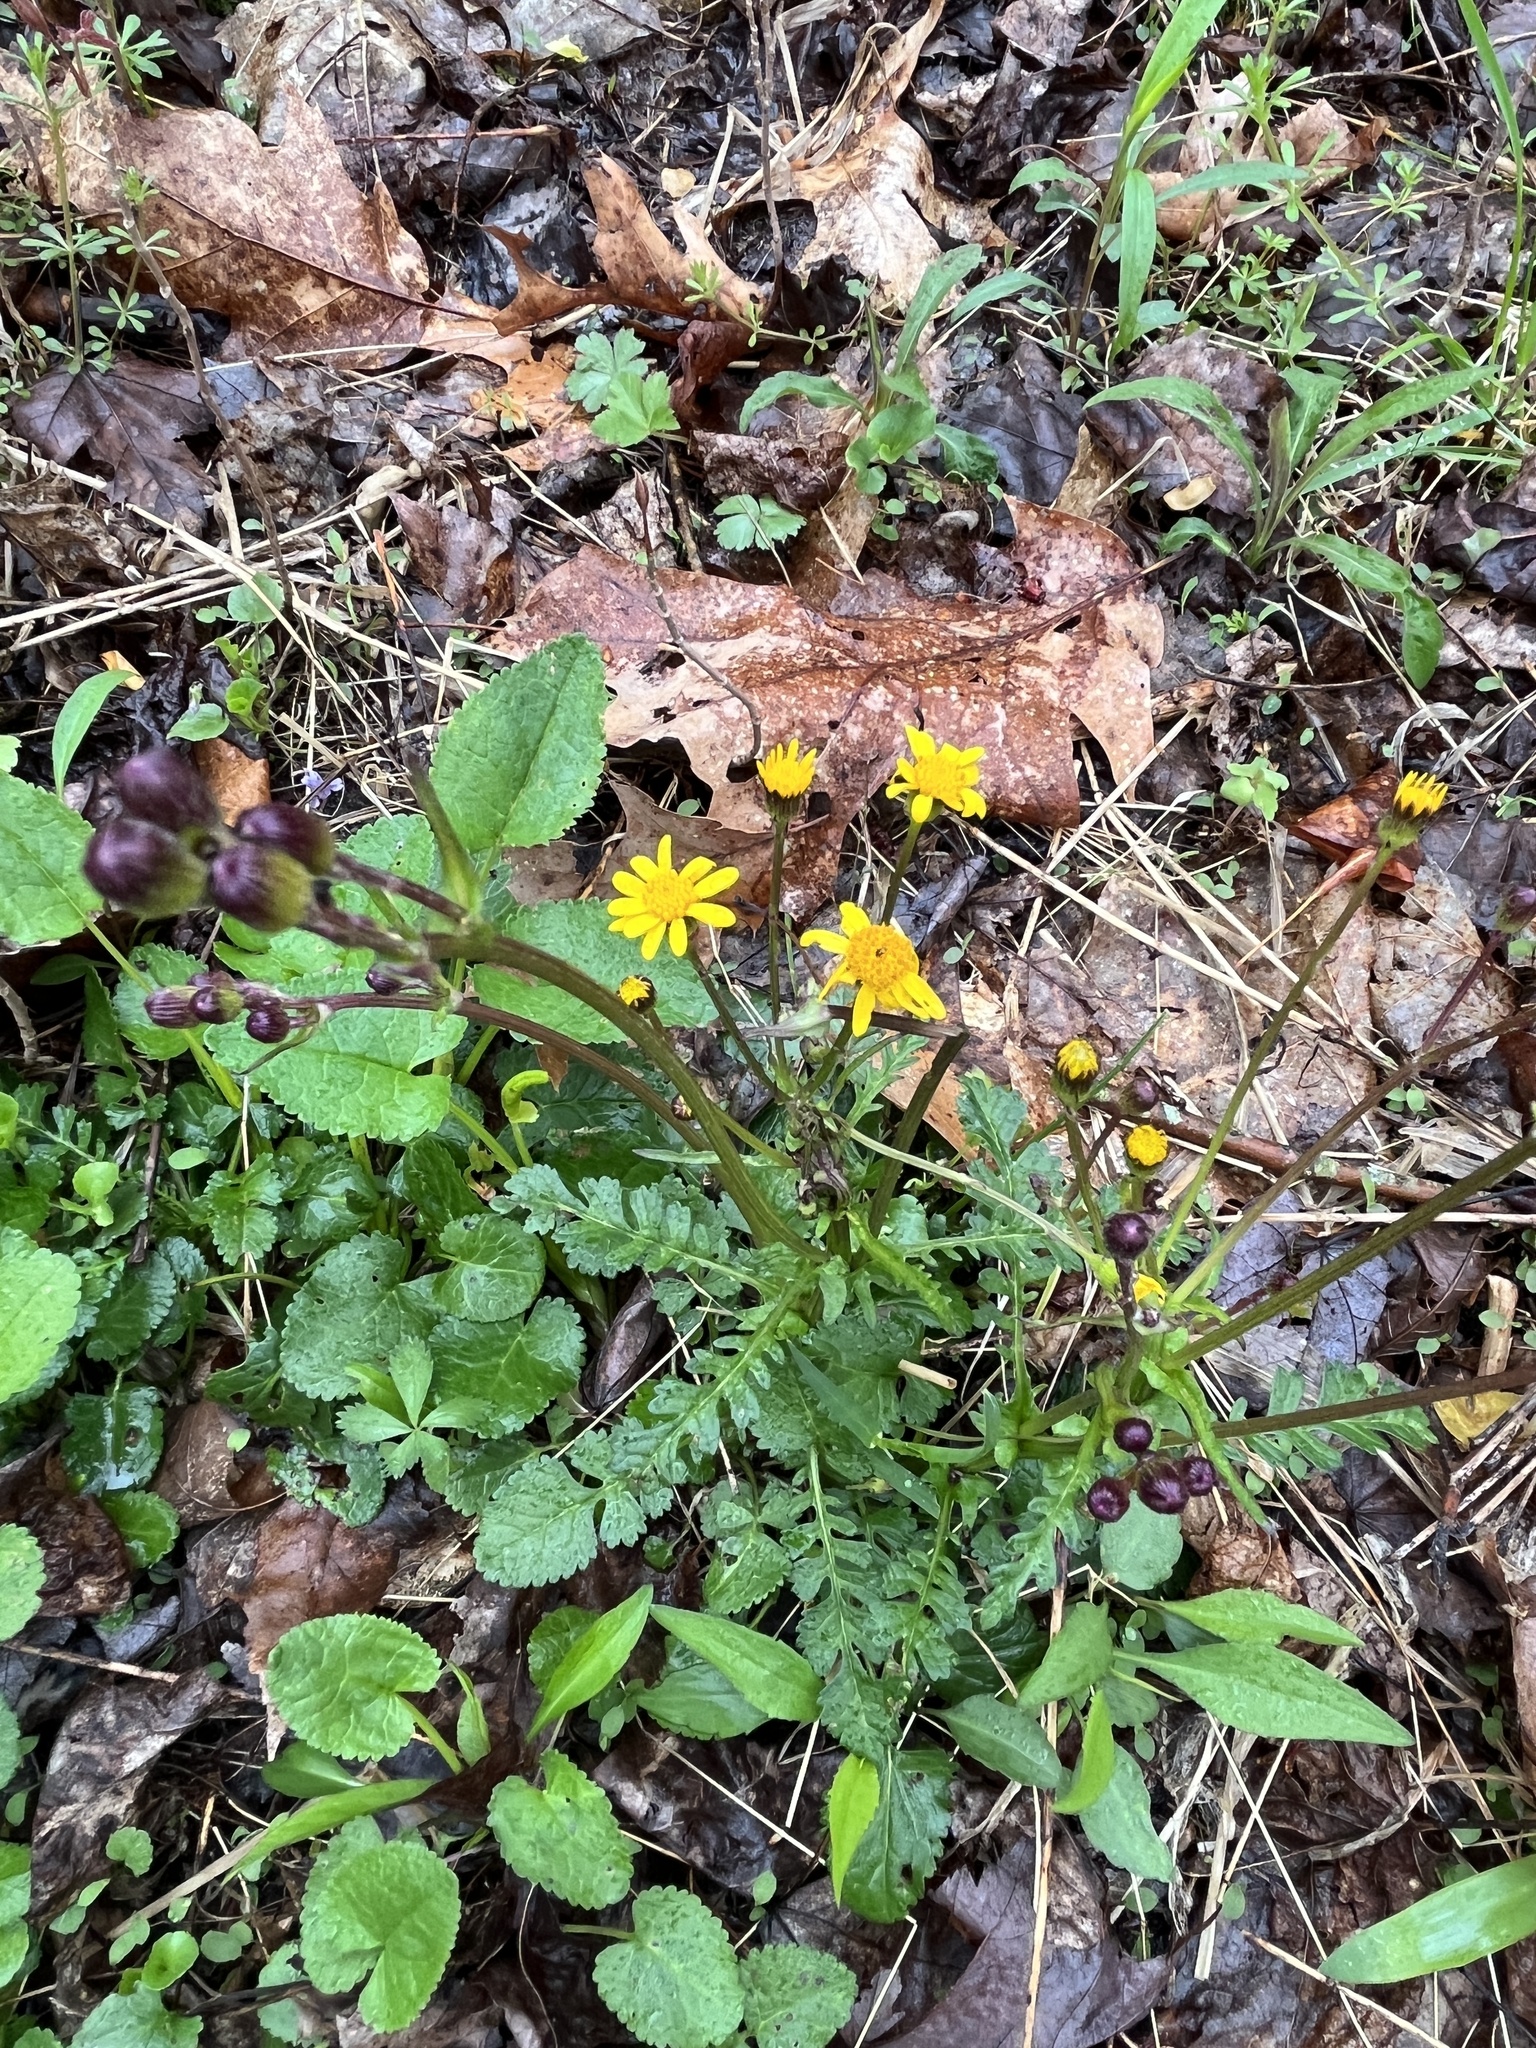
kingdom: Plantae
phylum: Tracheophyta
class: Magnoliopsida
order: Asterales
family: Asteraceae
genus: Packera
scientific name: Packera aurea
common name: Golden groundsel
